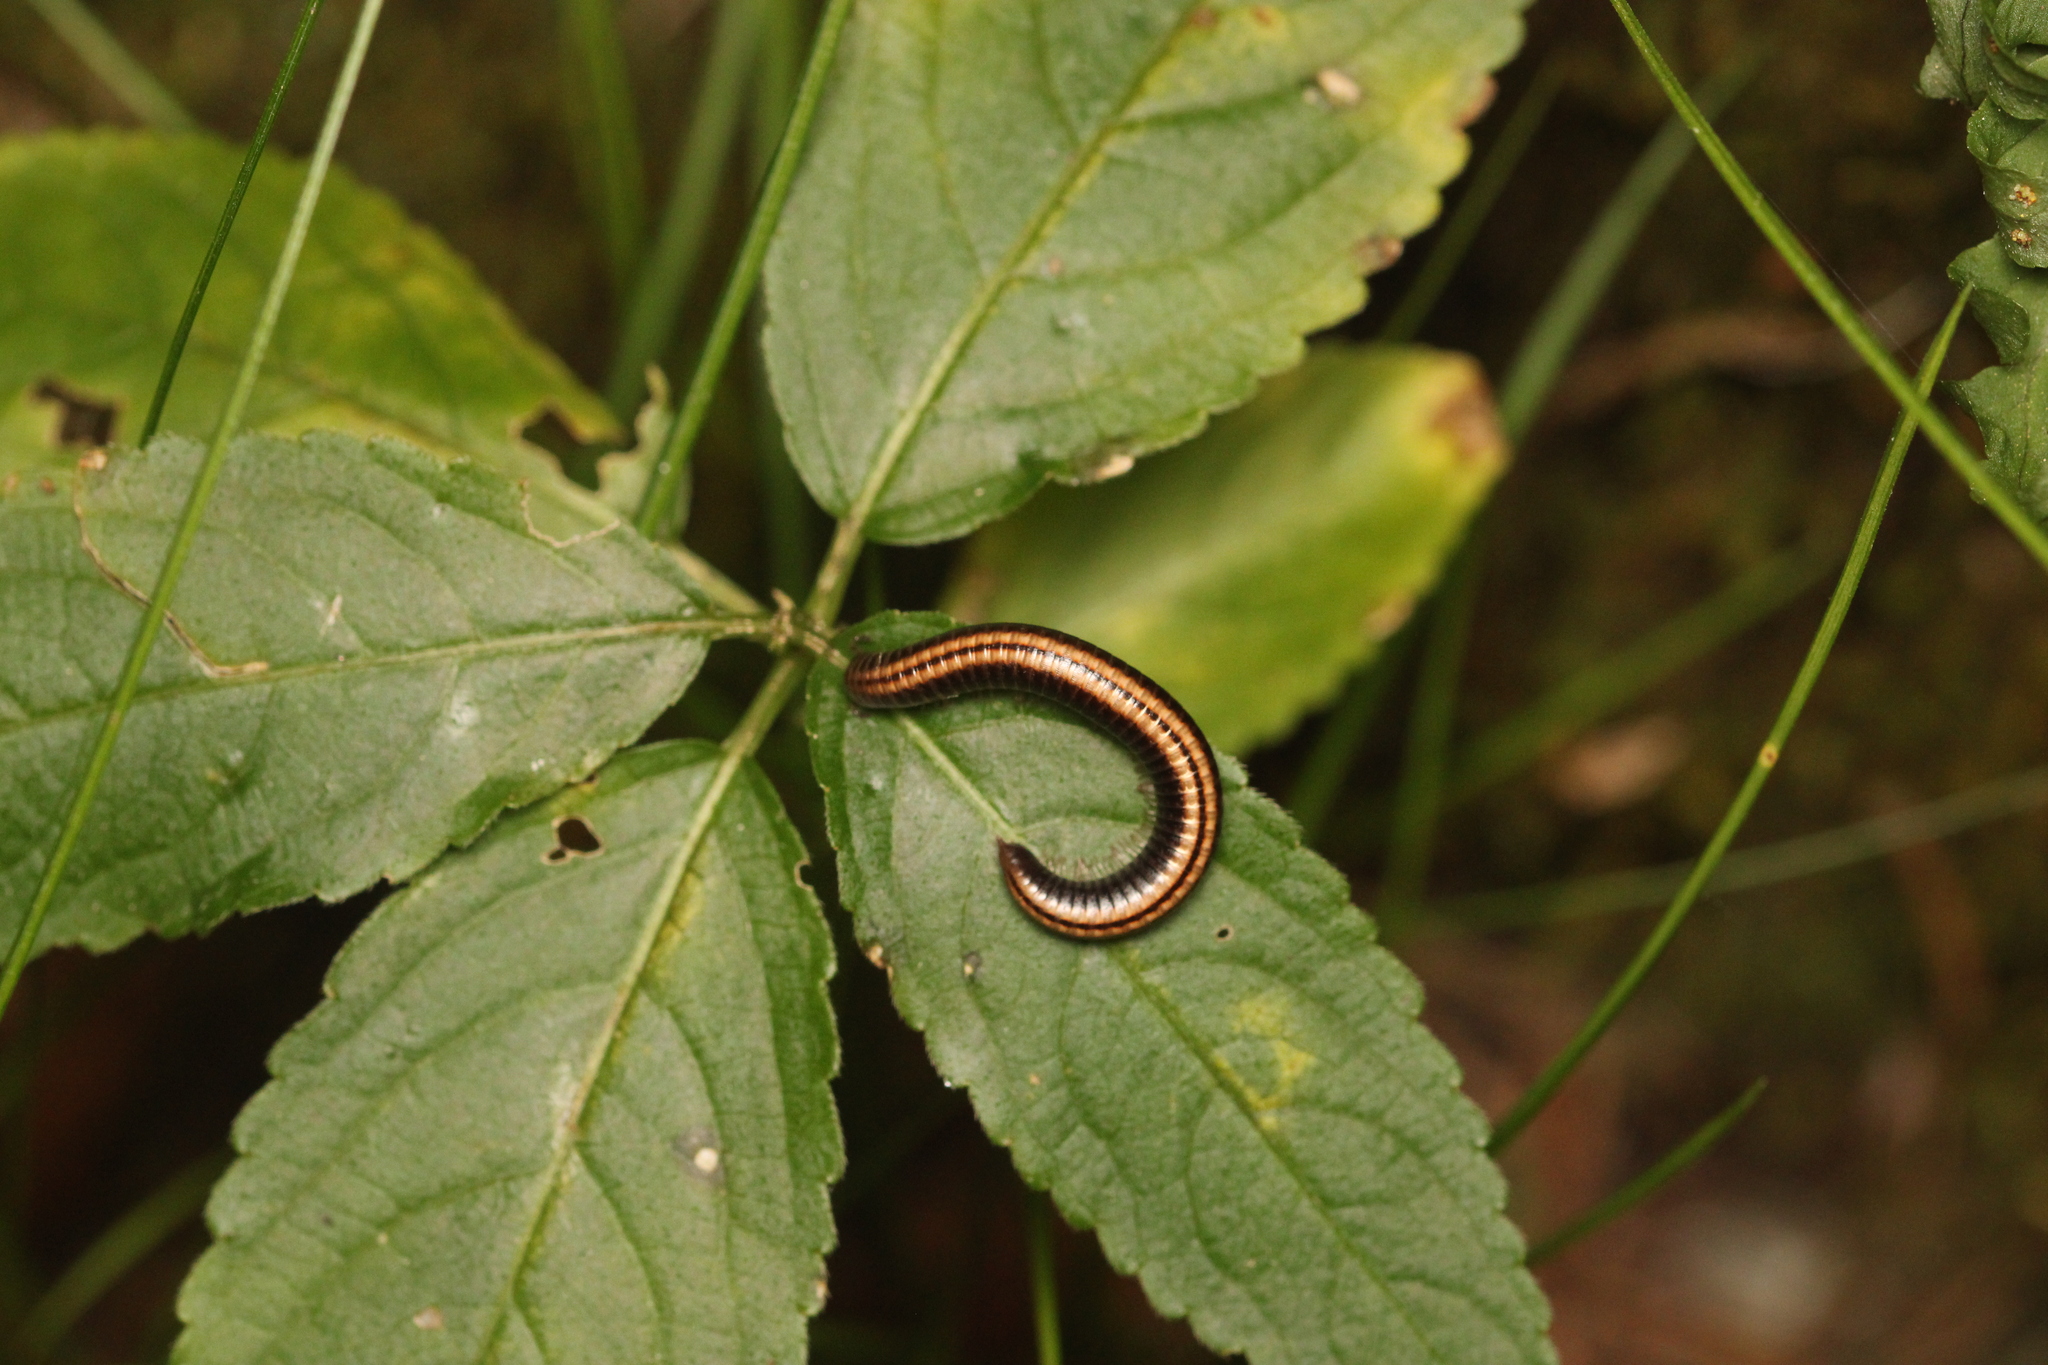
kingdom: Animalia
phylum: Arthropoda
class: Diplopoda
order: Julida
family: Julidae
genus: Ommatoiulus
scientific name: Ommatoiulus sabulosus
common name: Striped millipede
